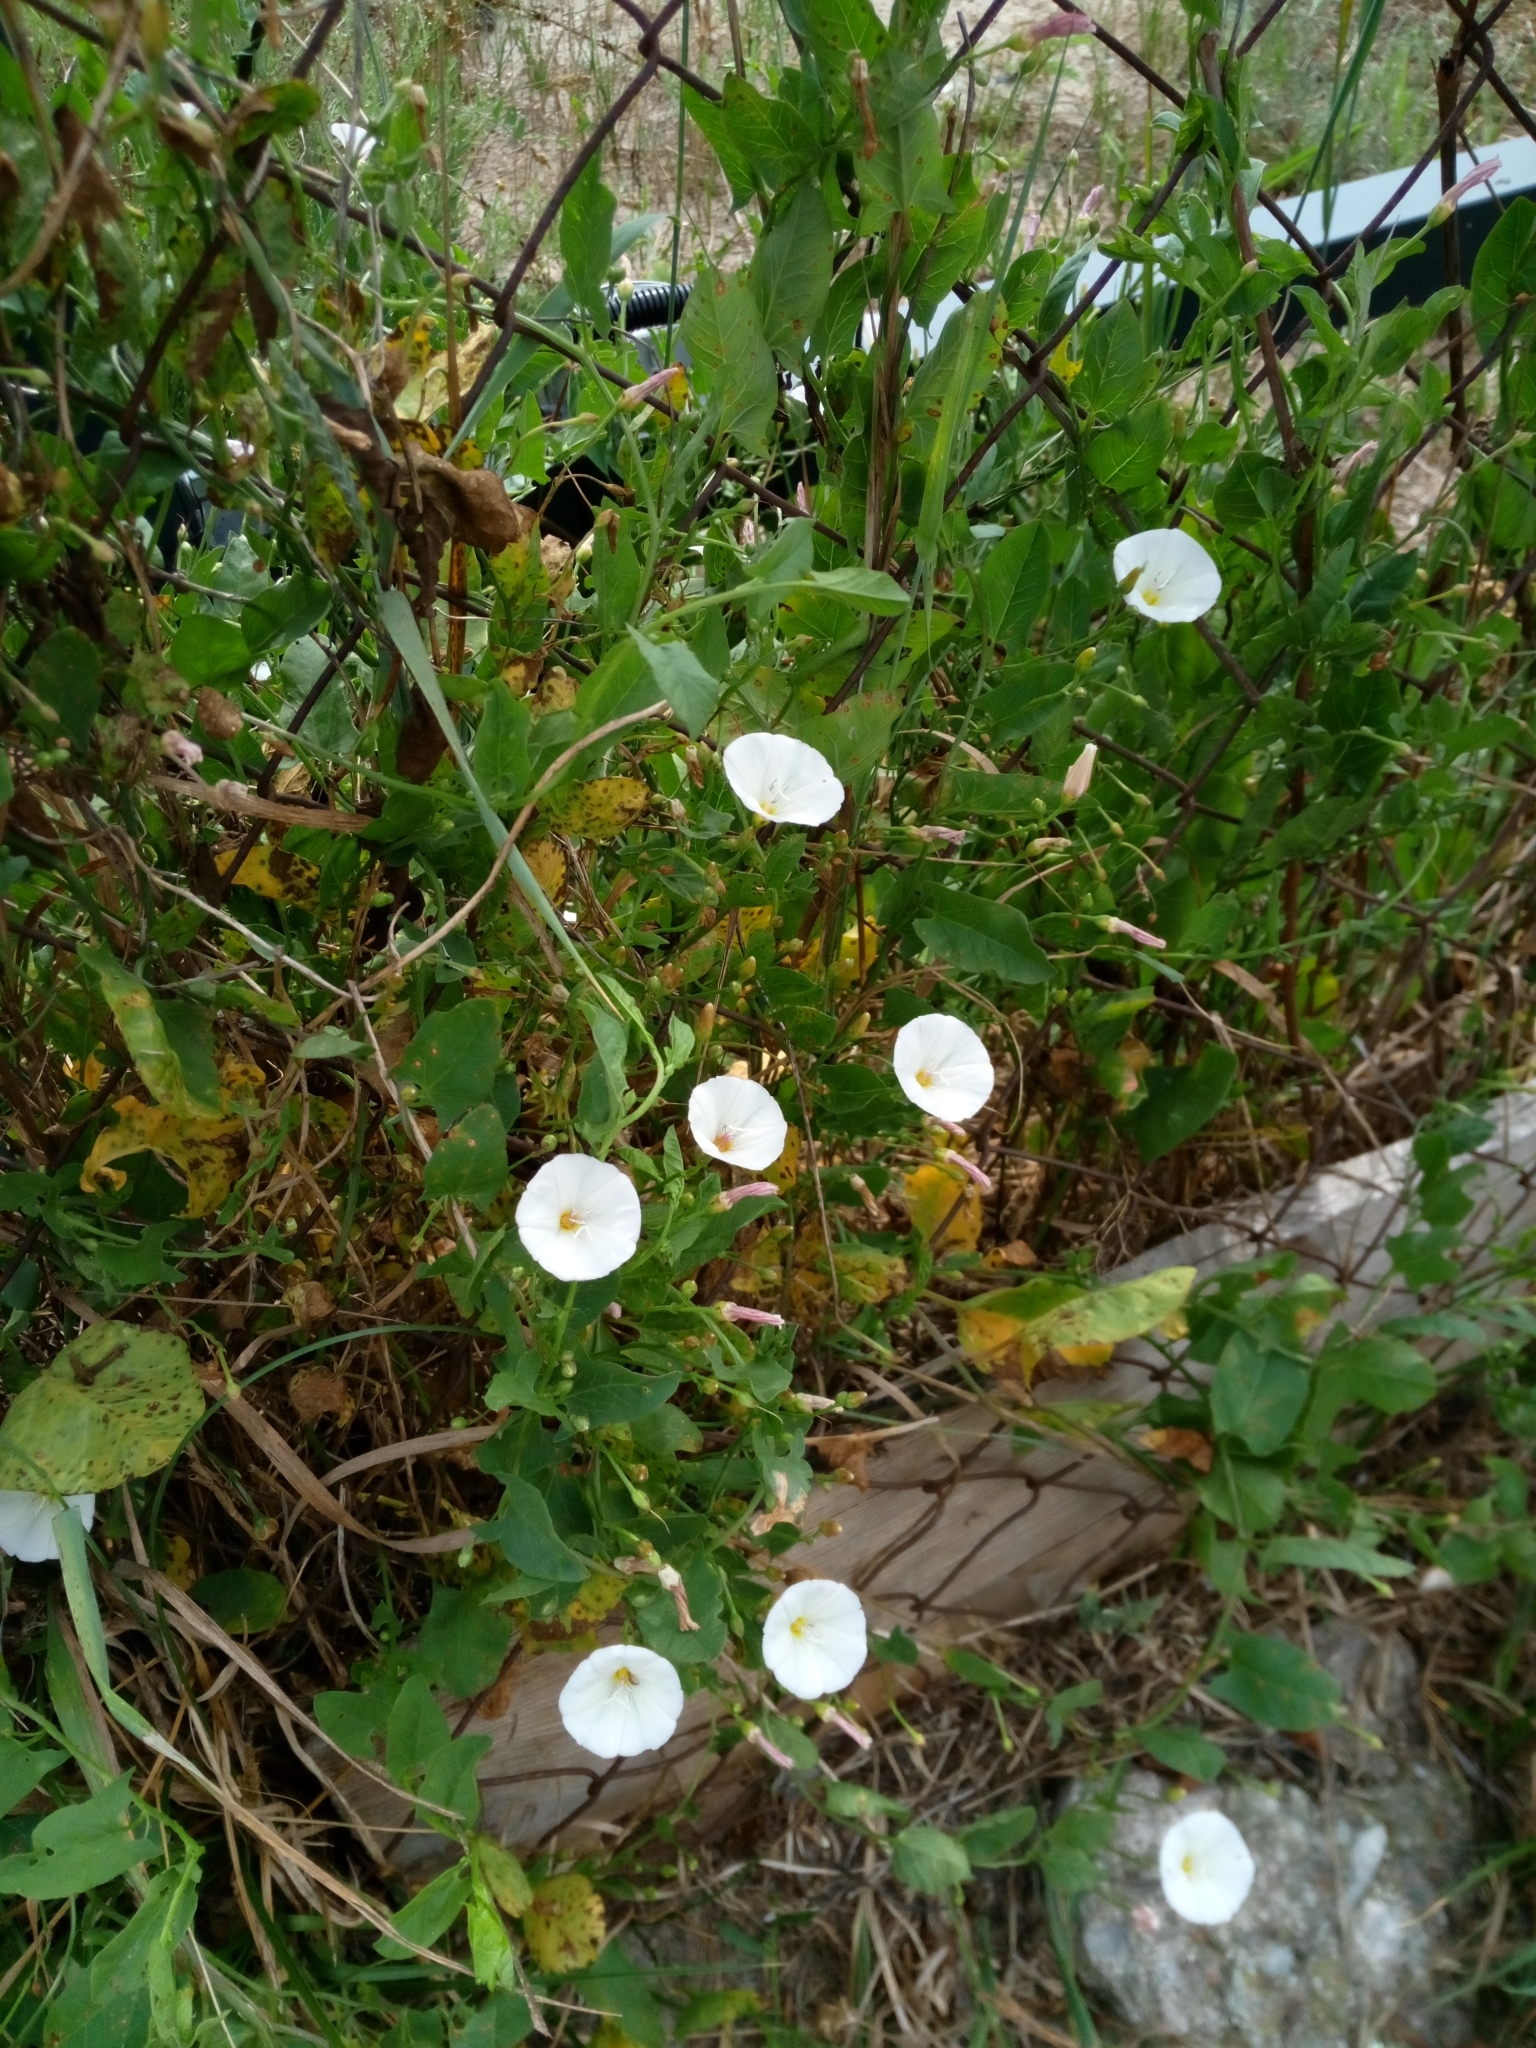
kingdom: Plantae
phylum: Tracheophyta
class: Magnoliopsida
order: Solanales
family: Convolvulaceae
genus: Convolvulus
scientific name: Convolvulus arvensis
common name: Field bindweed
